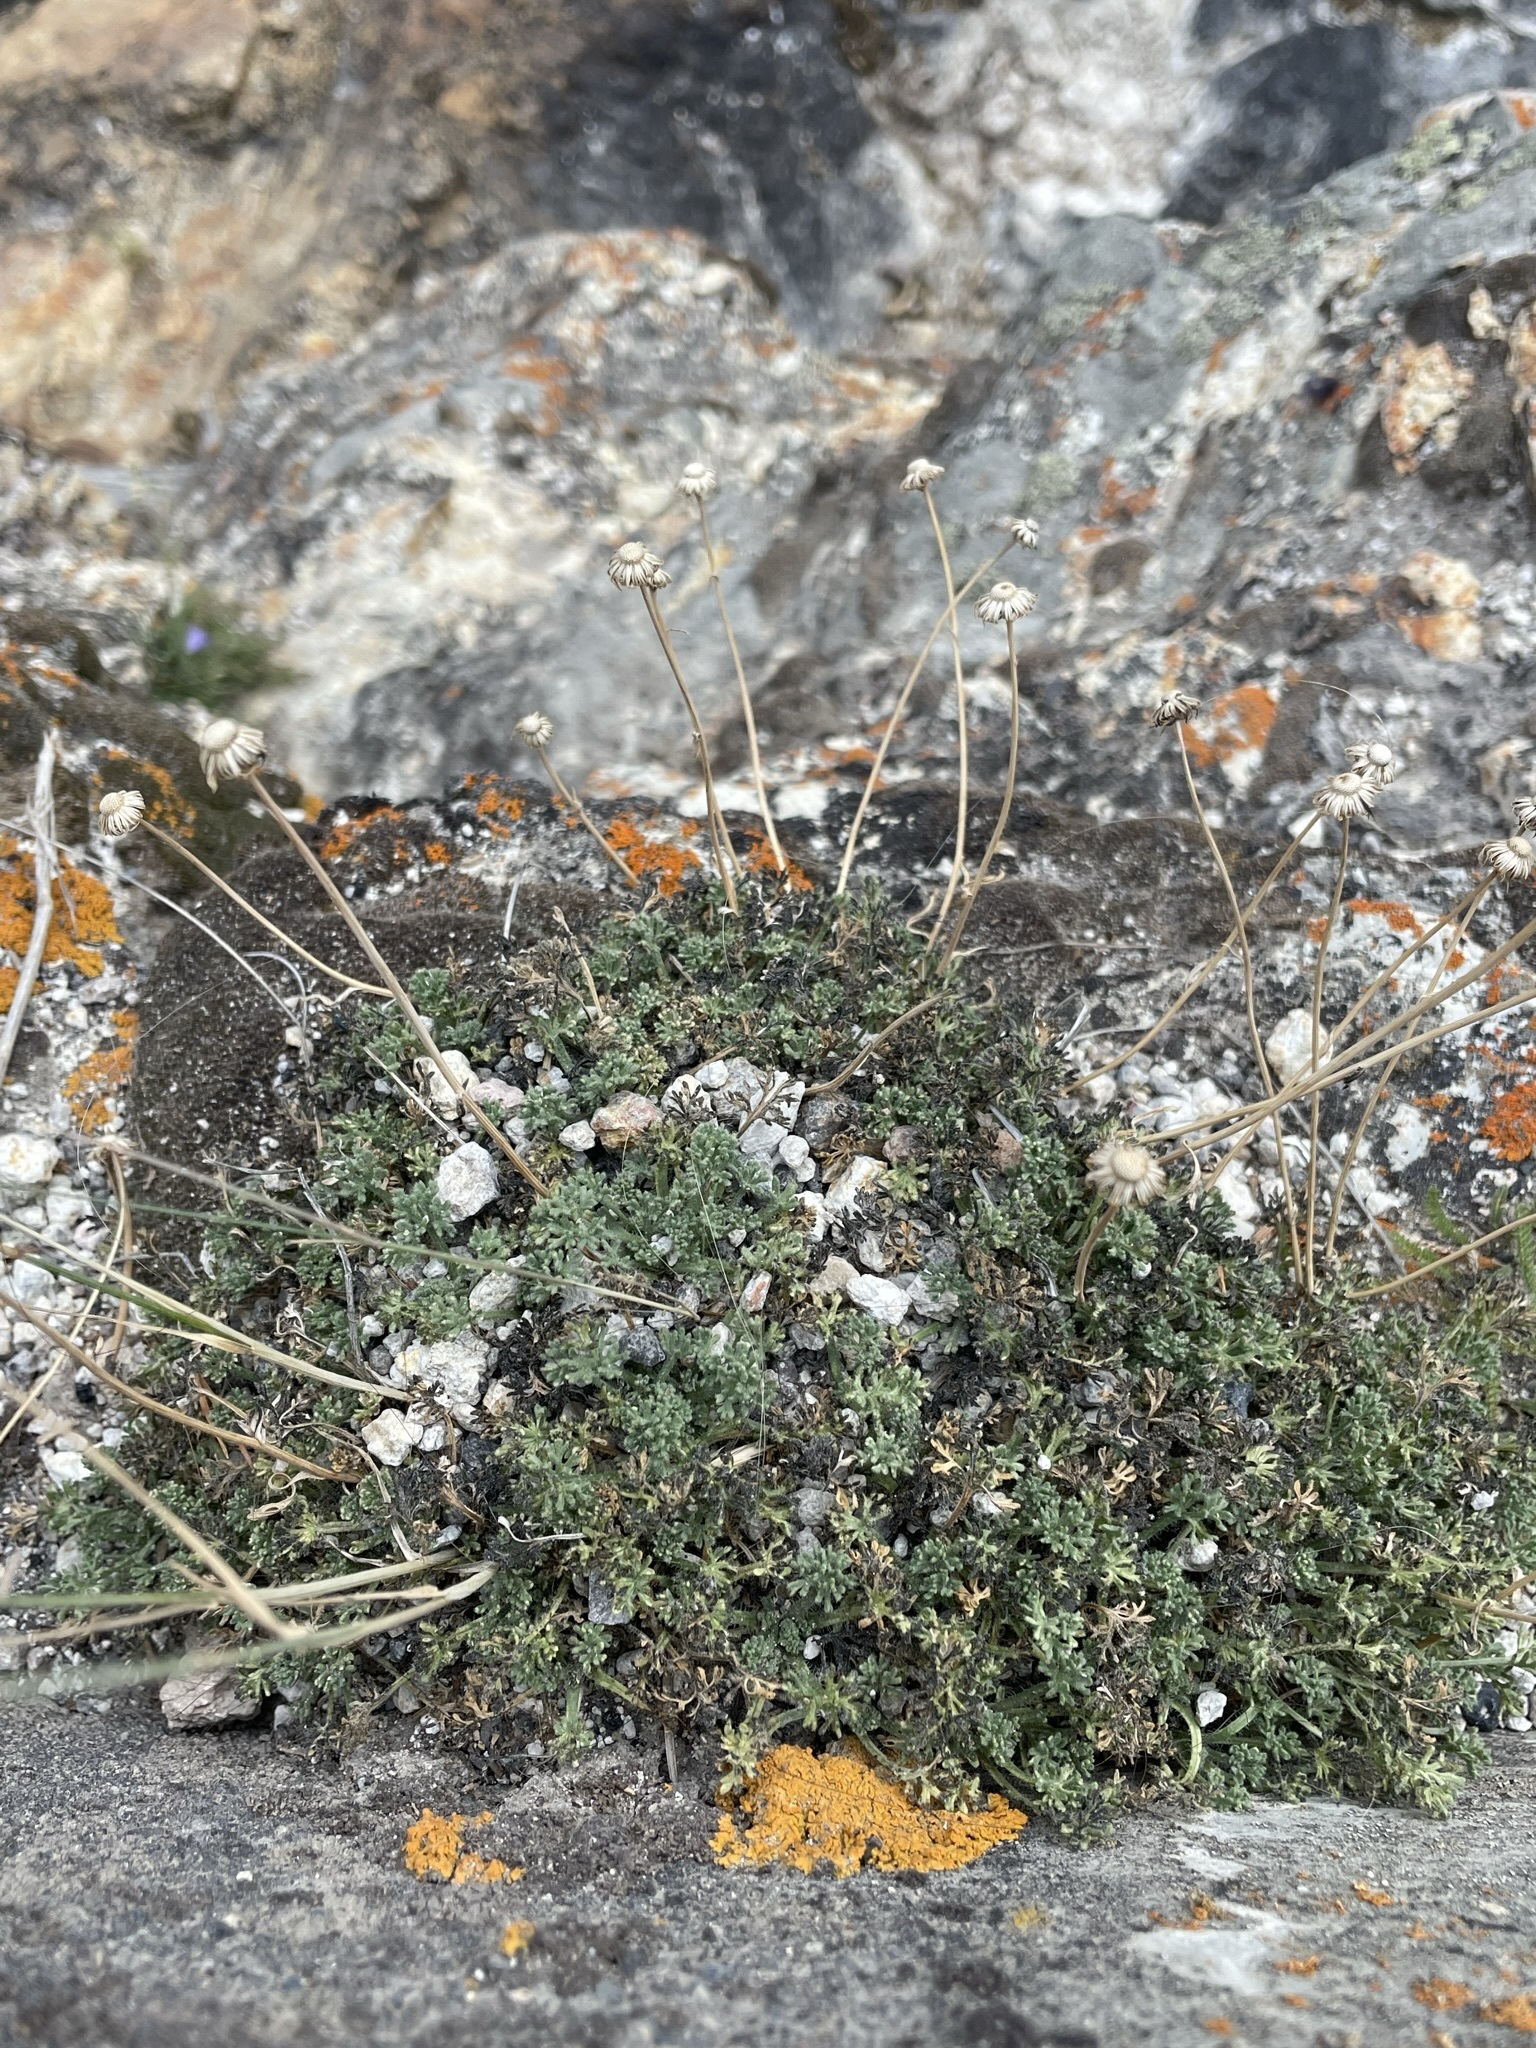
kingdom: Plantae
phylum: Tracheophyta
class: Magnoliopsida
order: Asterales
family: Asteraceae
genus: Erigeron
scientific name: Erigeron compositus
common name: Dwarf mountain fleabane
